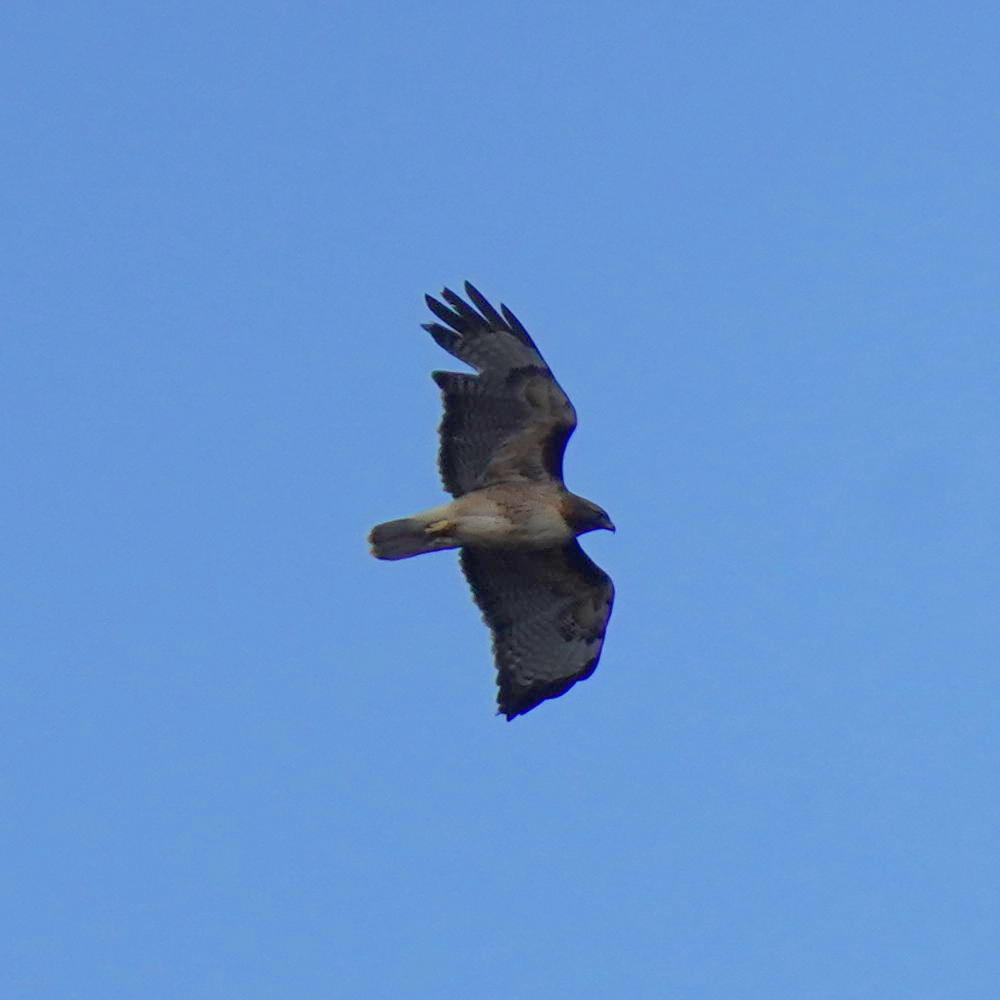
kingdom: Animalia
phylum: Chordata
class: Aves
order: Accipitriformes
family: Accipitridae
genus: Buteo
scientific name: Buteo jamaicensis
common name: Red-tailed hawk
